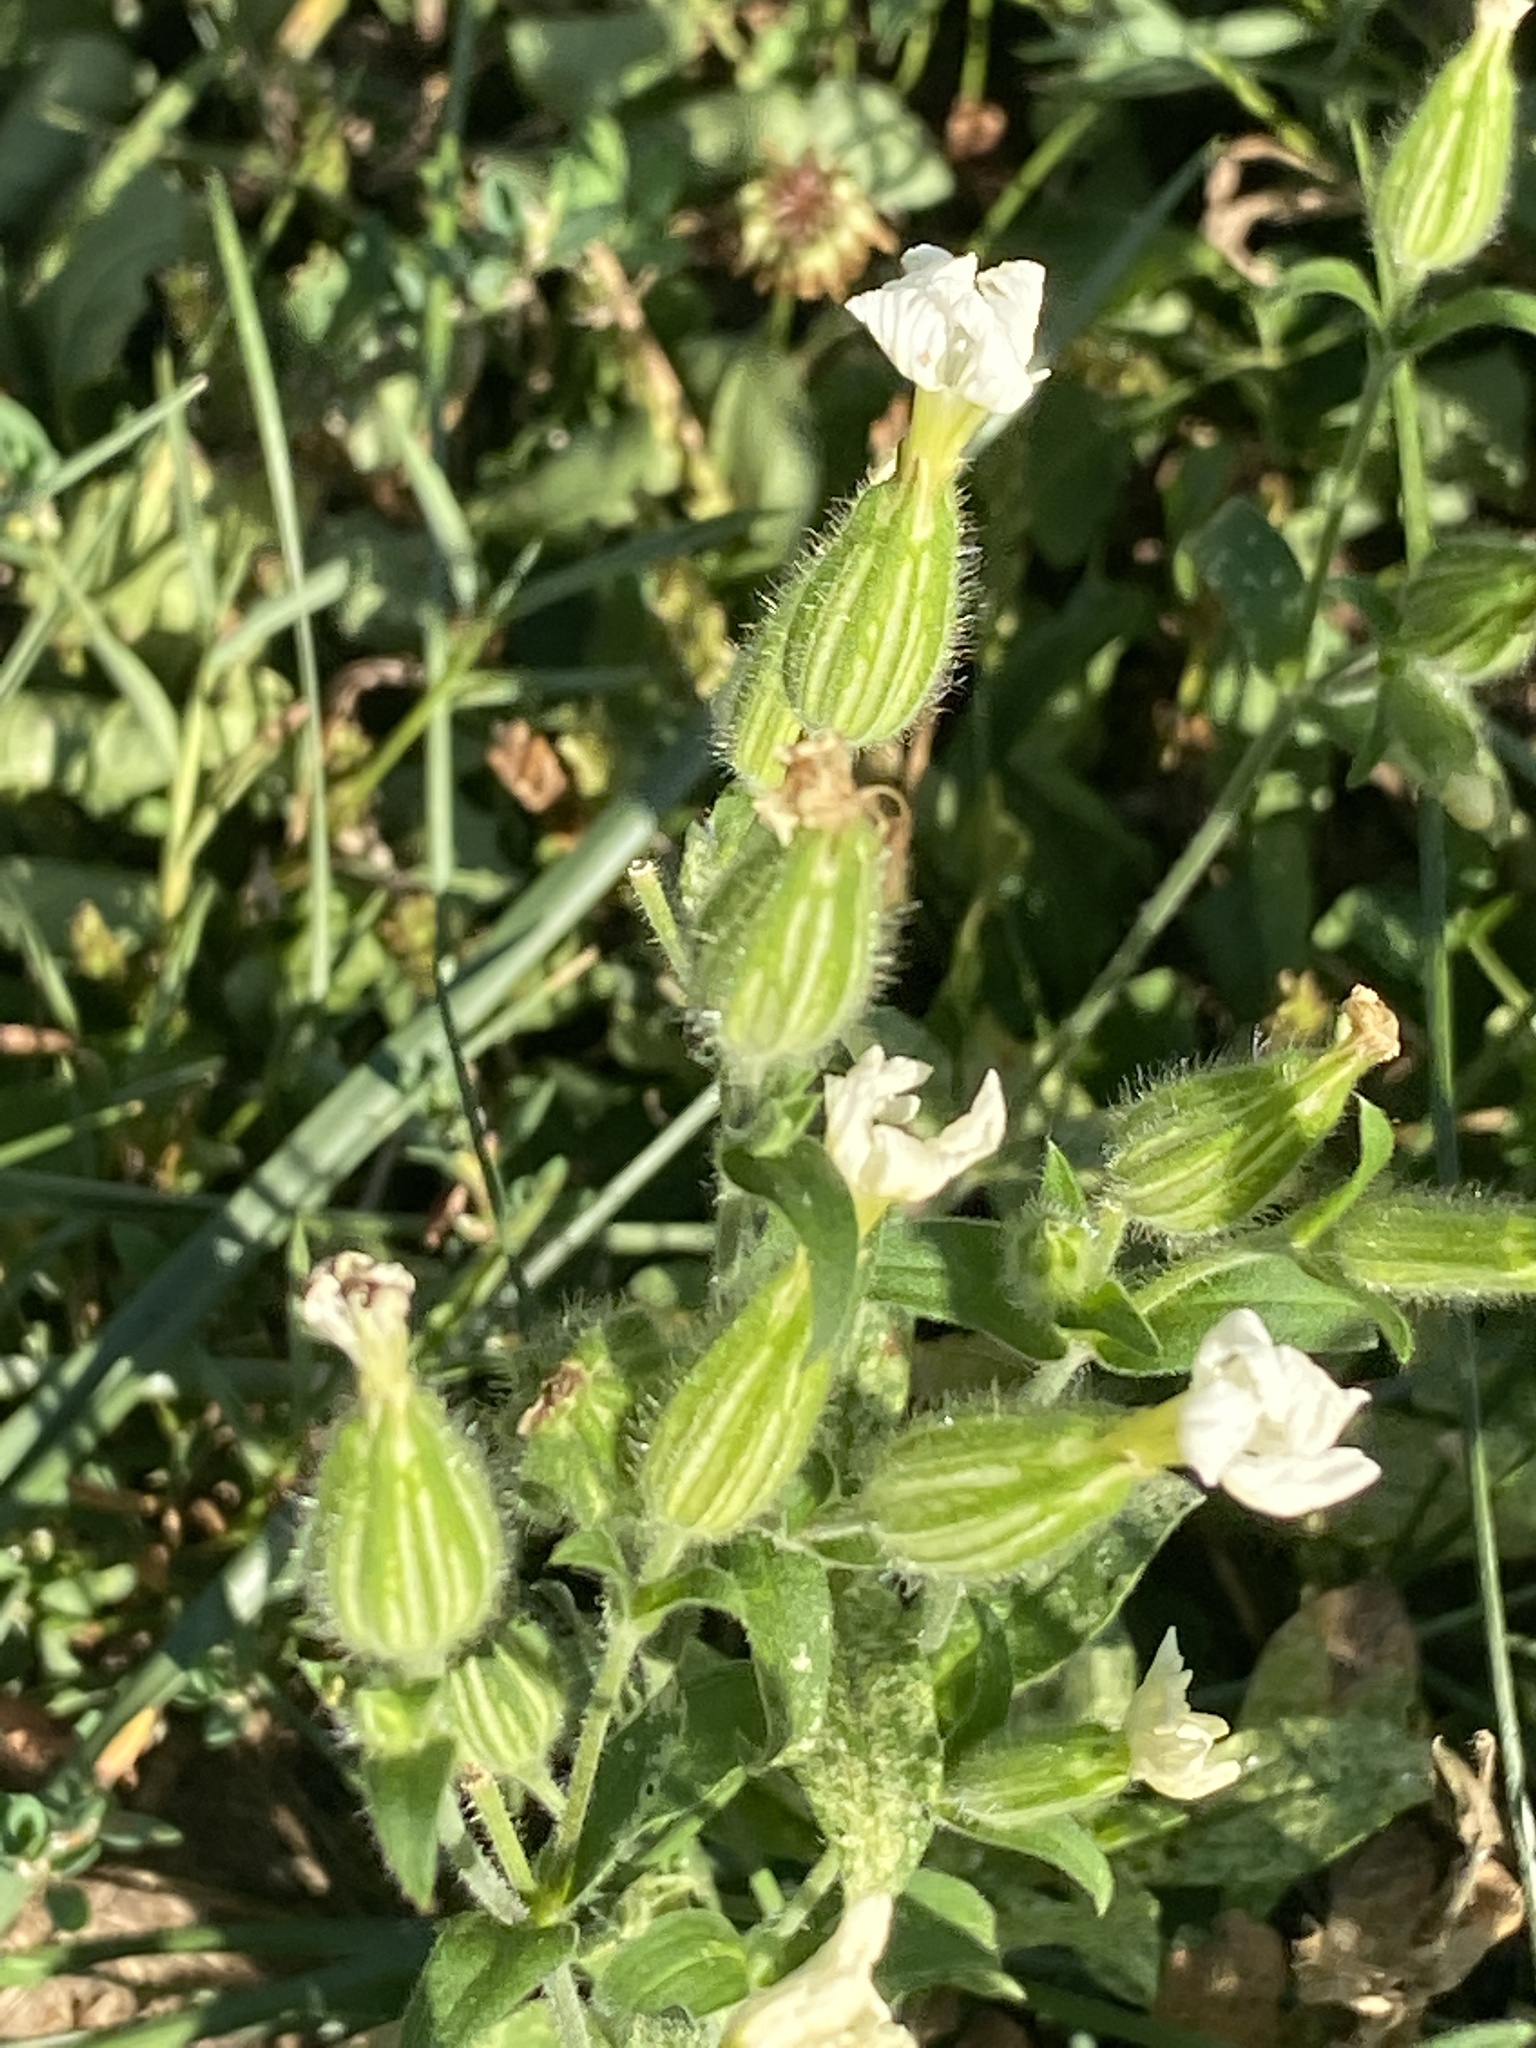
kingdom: Plantae
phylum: Tracheophyta
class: Magnoliopsida
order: Caryophyllales
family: Caryophyllaceae
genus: Silene
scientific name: Silene latifolia
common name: White campion
